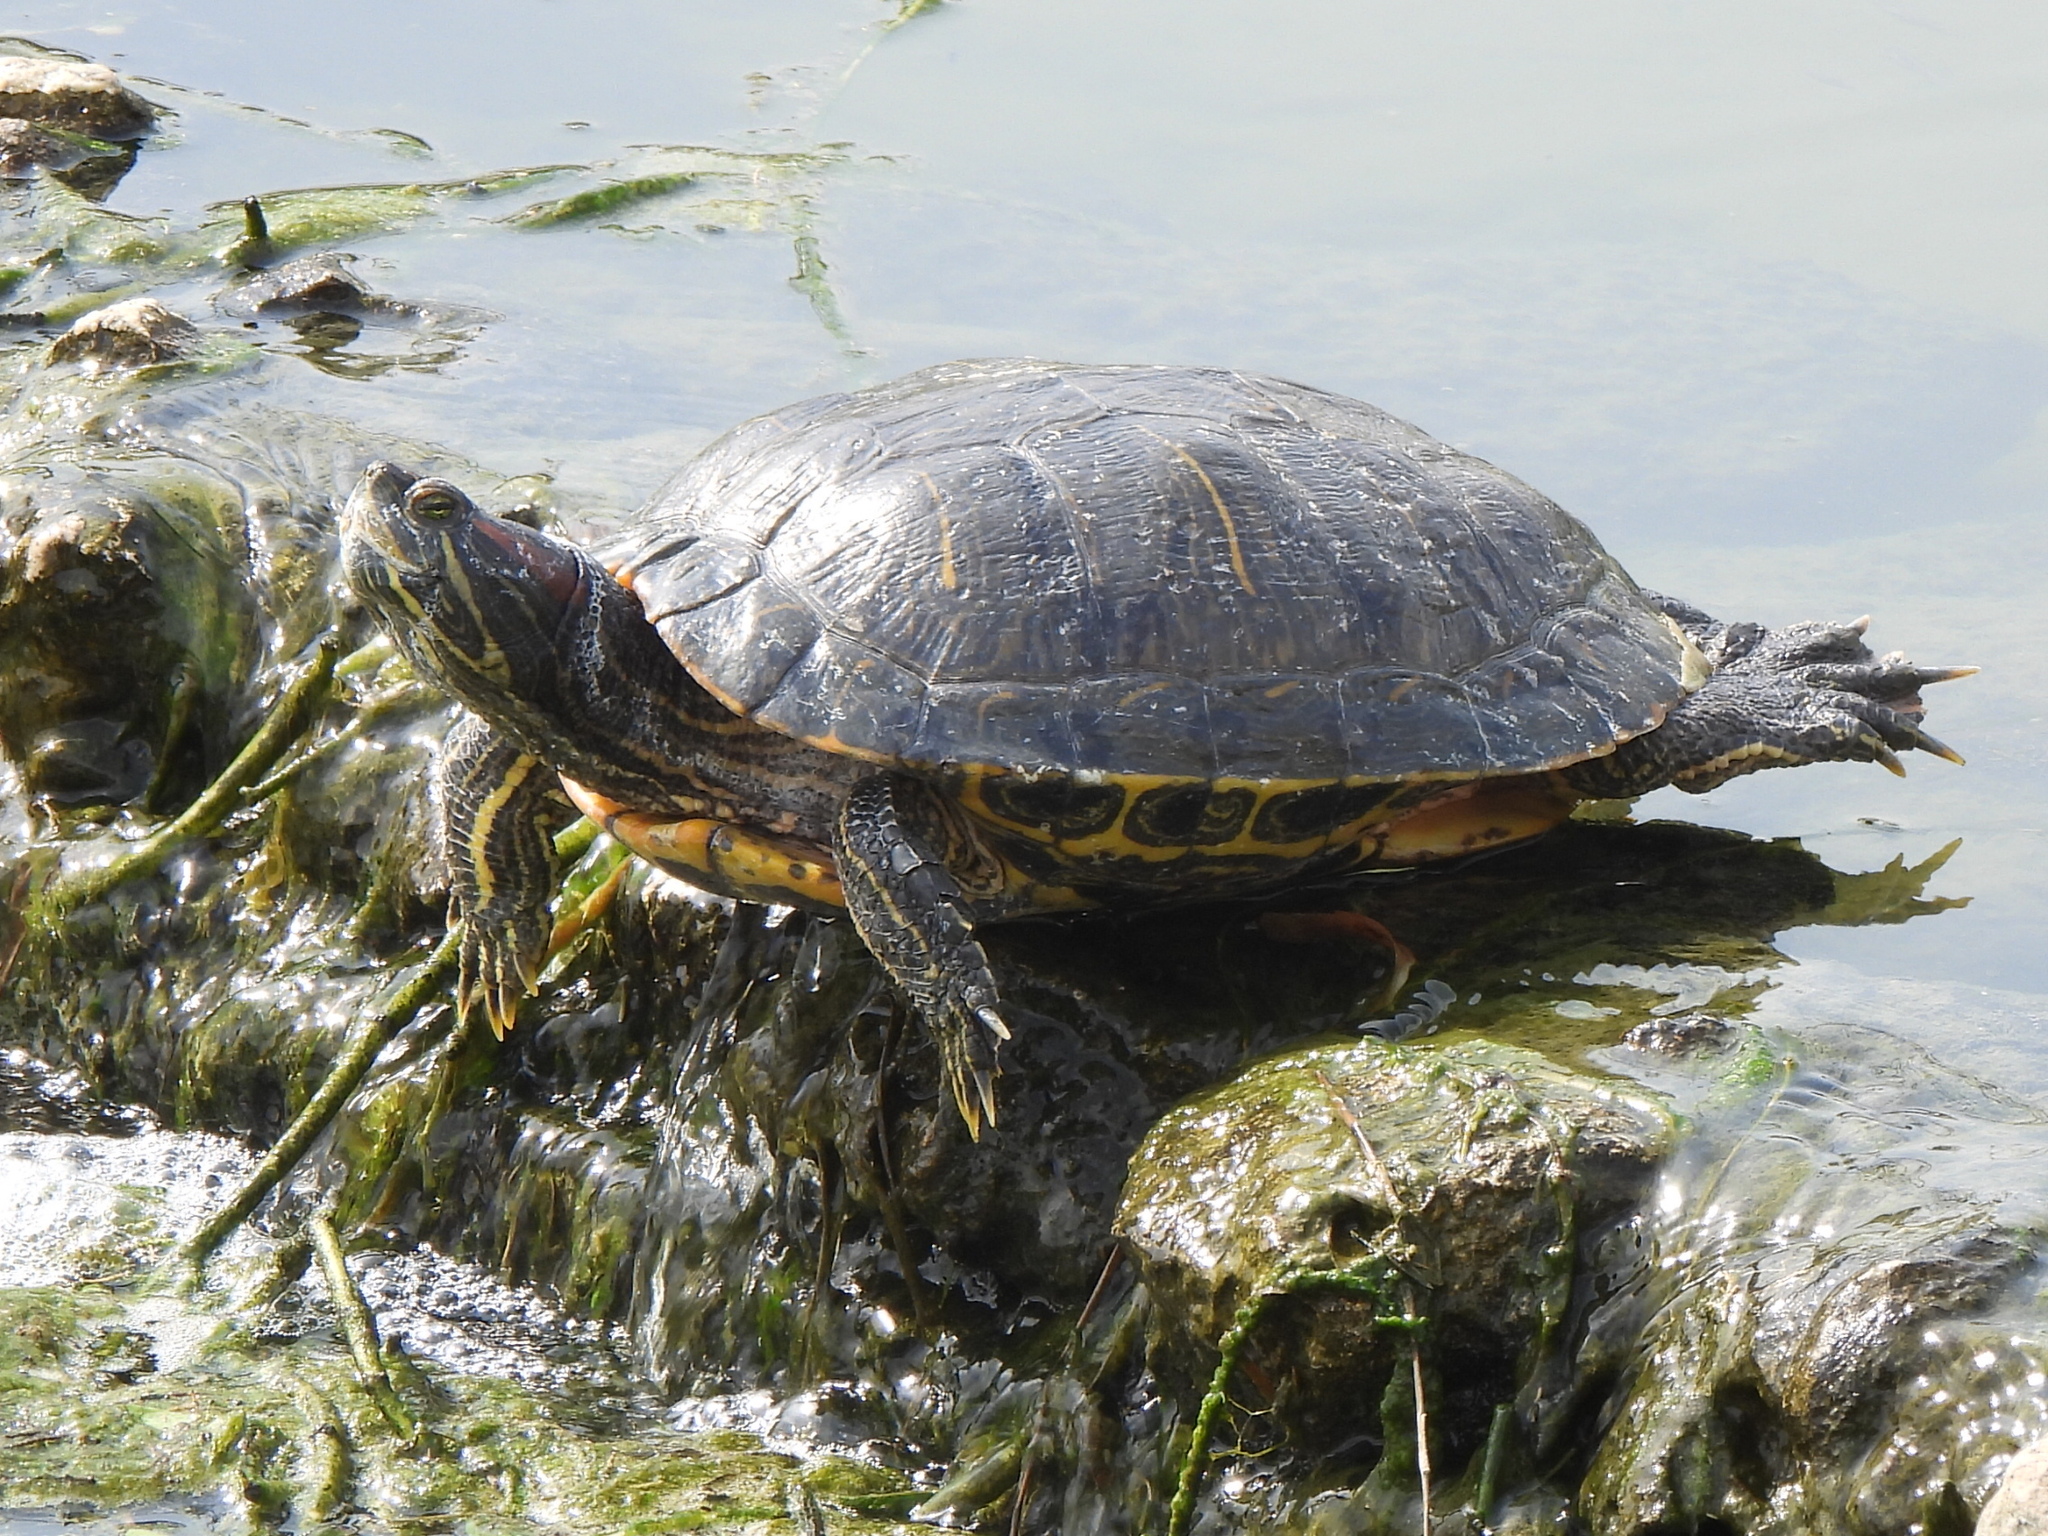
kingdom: Animalia
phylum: Chordata
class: Testudines
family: Emydidae
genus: Trachemys
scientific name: Trachemys scripta
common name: Slider
